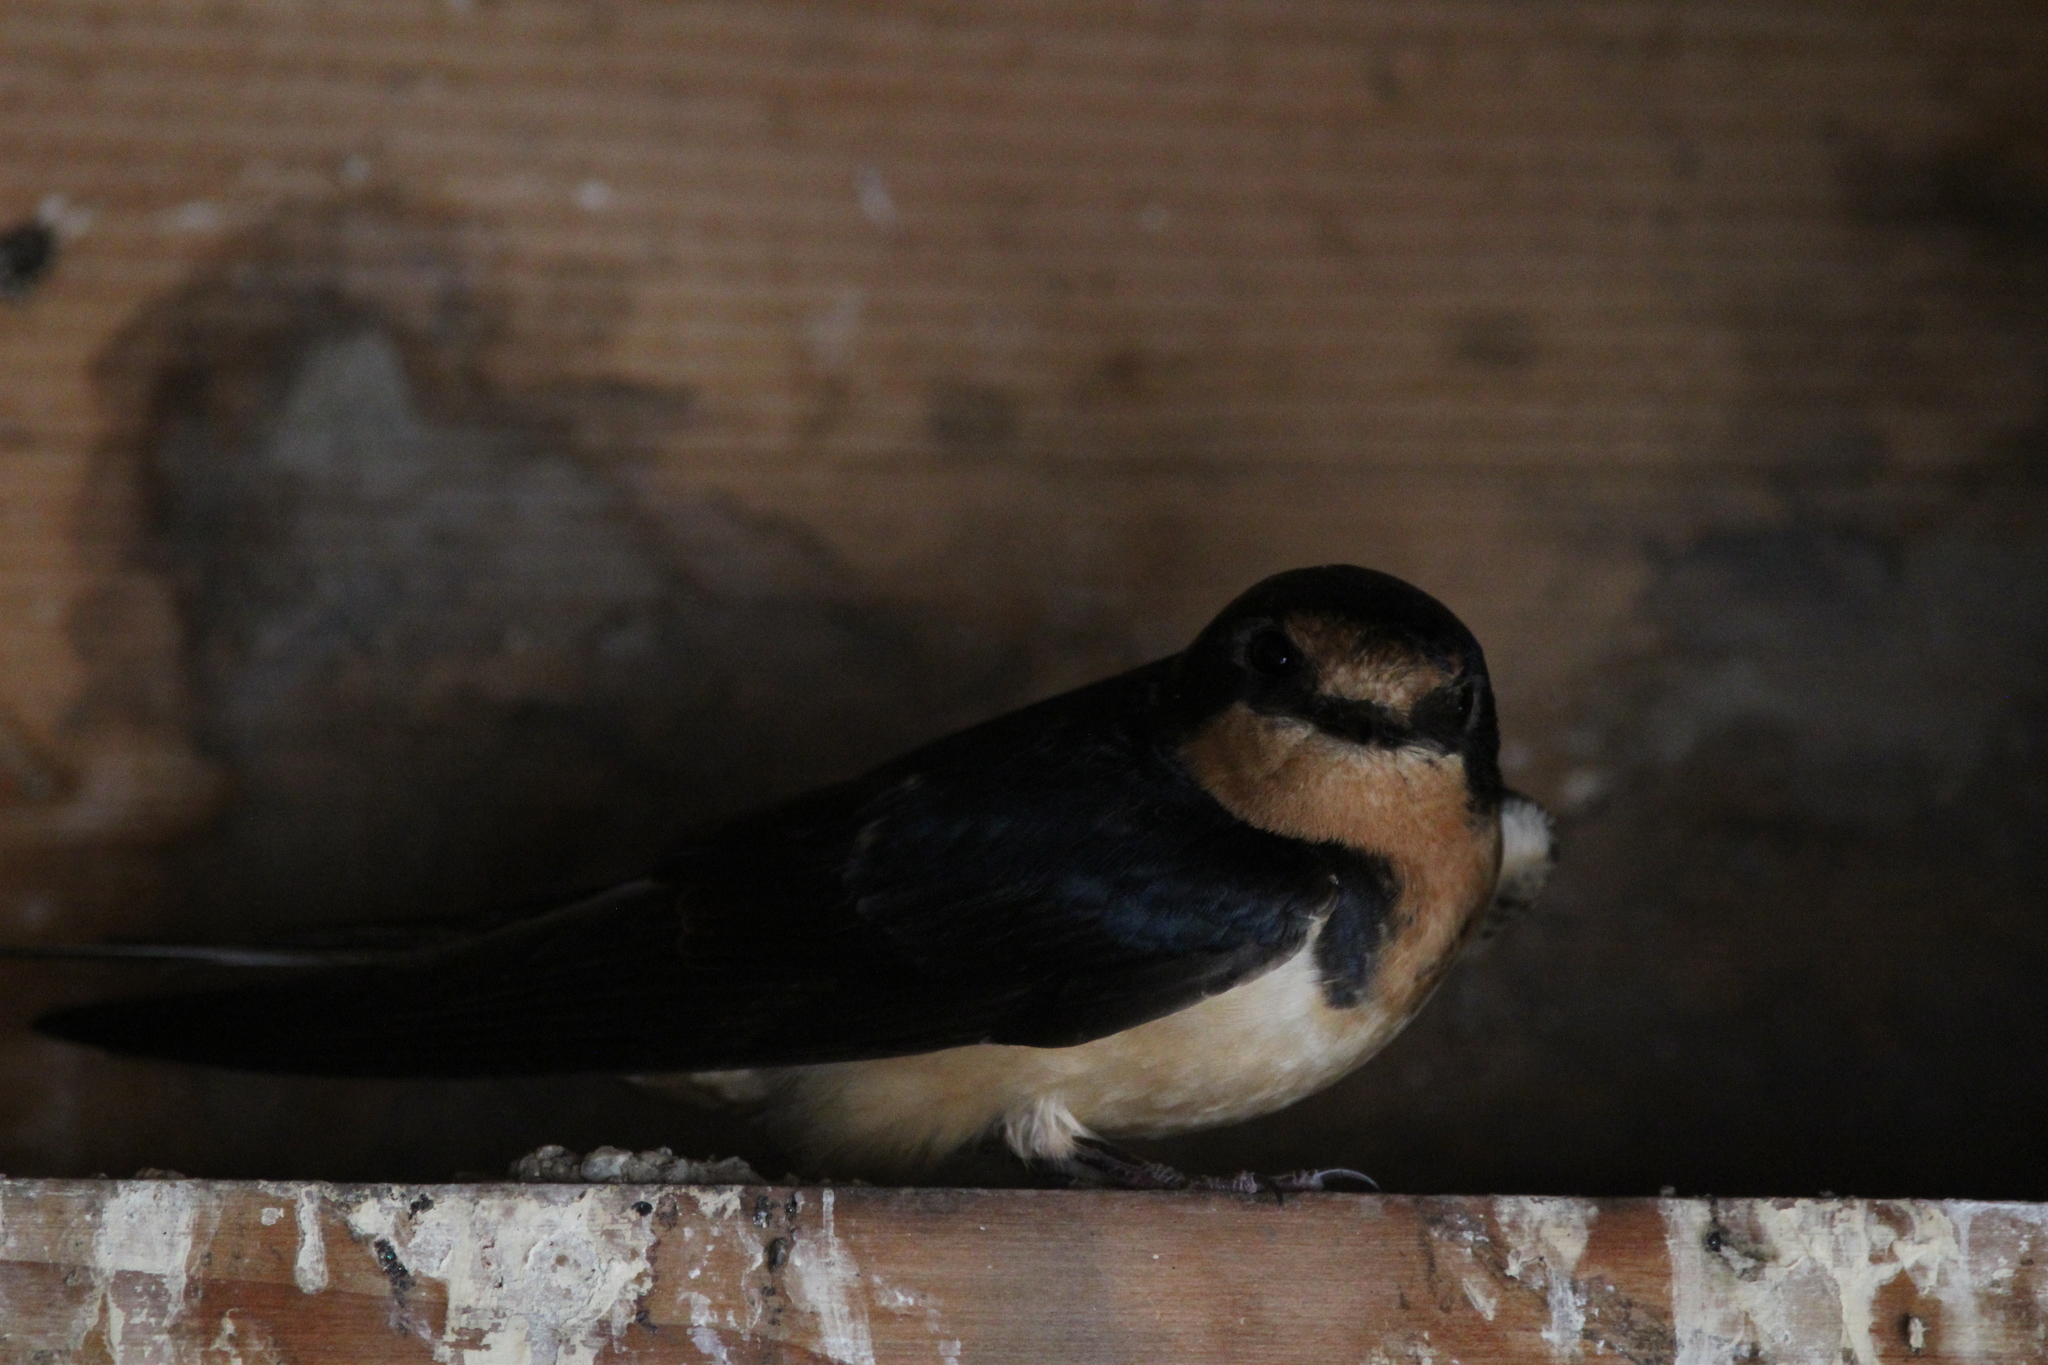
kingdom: Animalia
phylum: Chordata
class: Aves
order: Passeriformes
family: Hirundinidae
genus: Hirundo
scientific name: Hirundo rustica
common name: Barn swallow
